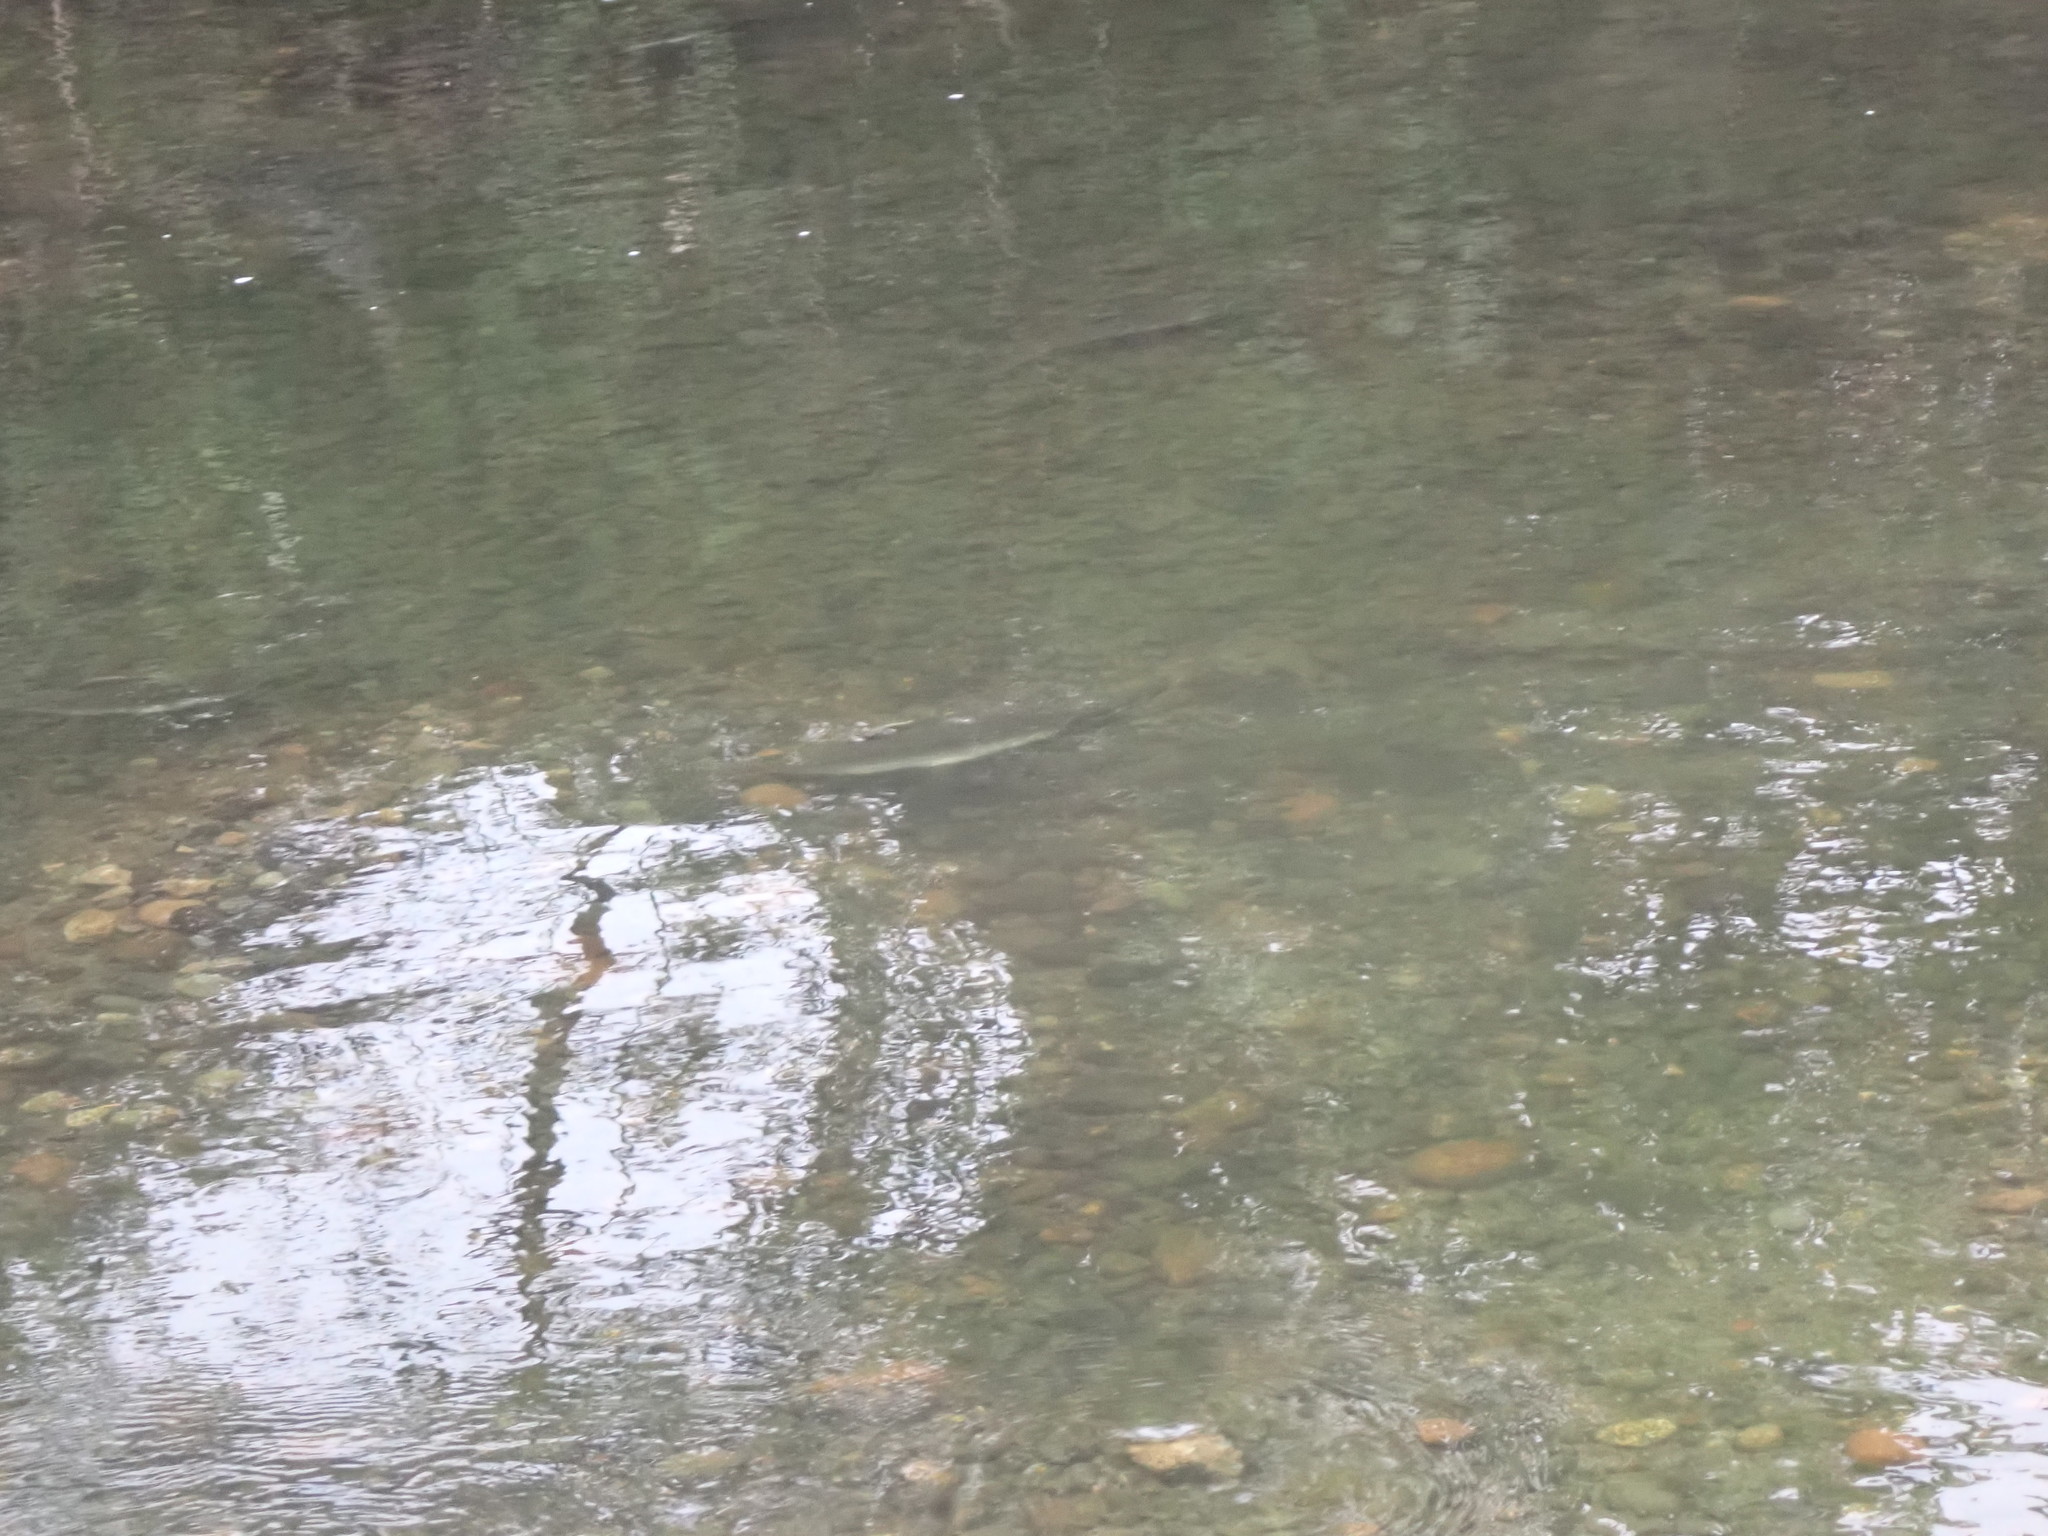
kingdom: Animalia
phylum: Chordata
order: Salmoniformes
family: Salmonidae
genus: Oncorhynchus
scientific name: Oncorhynchus gorbuscha
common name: Humpback salmon
